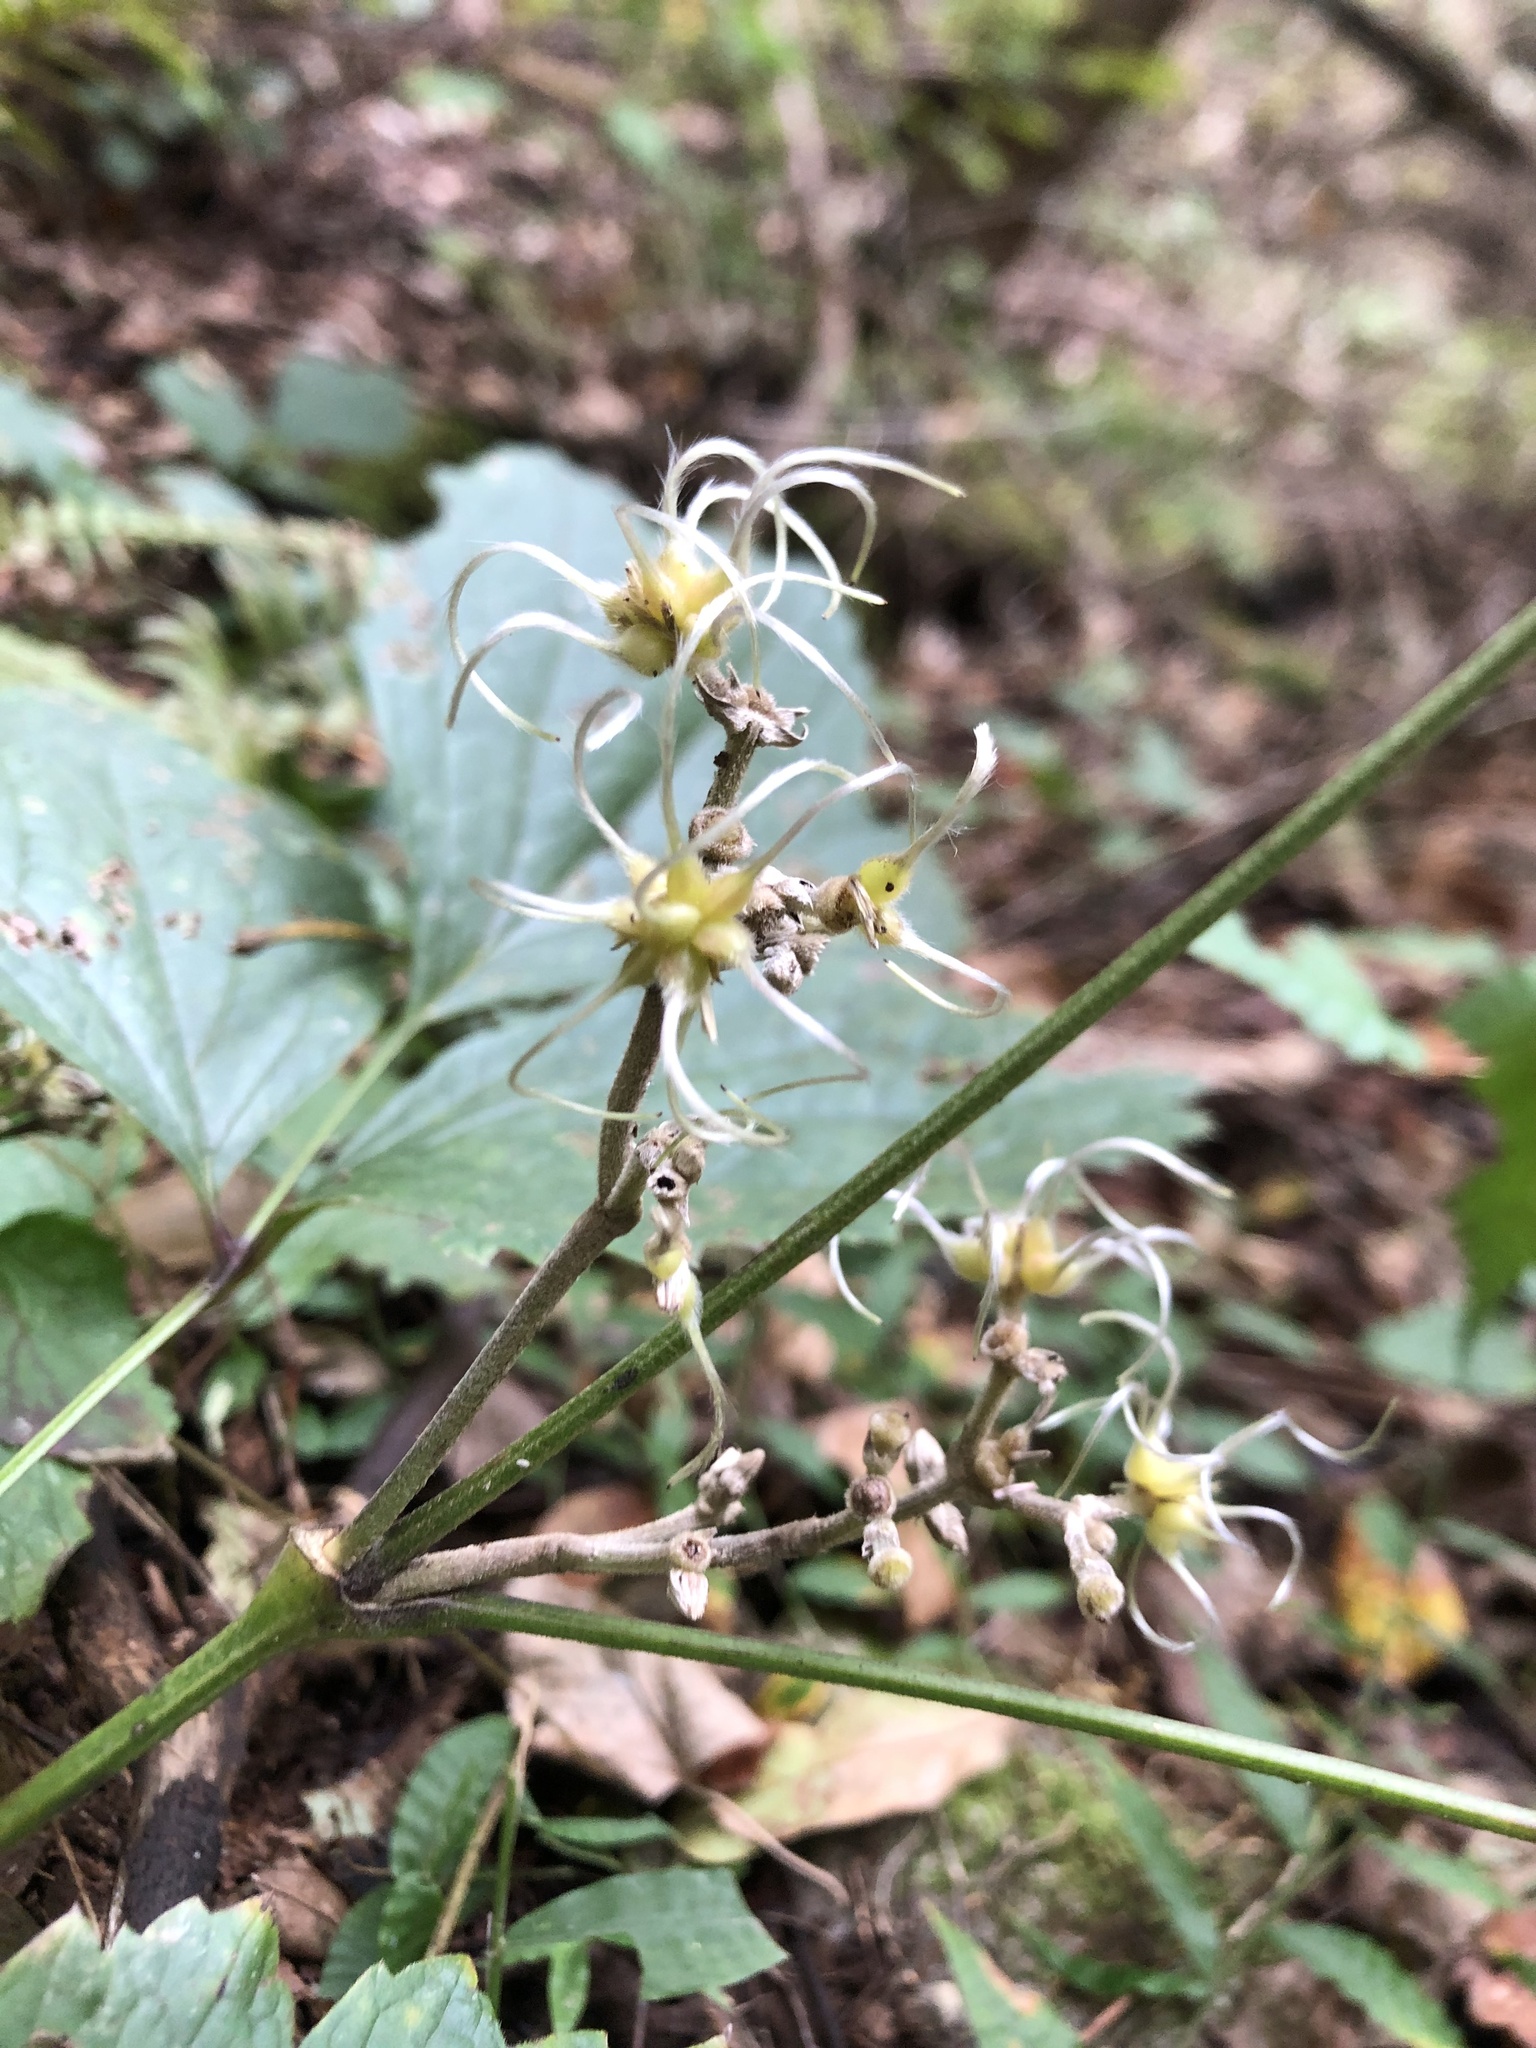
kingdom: Plantae
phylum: Tracheophyta
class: Magnoliopsida
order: Ranunculales
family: Ranunculaceae
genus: Clematis
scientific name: Clematis heracleifolia
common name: Hyacinth-flower clematis
